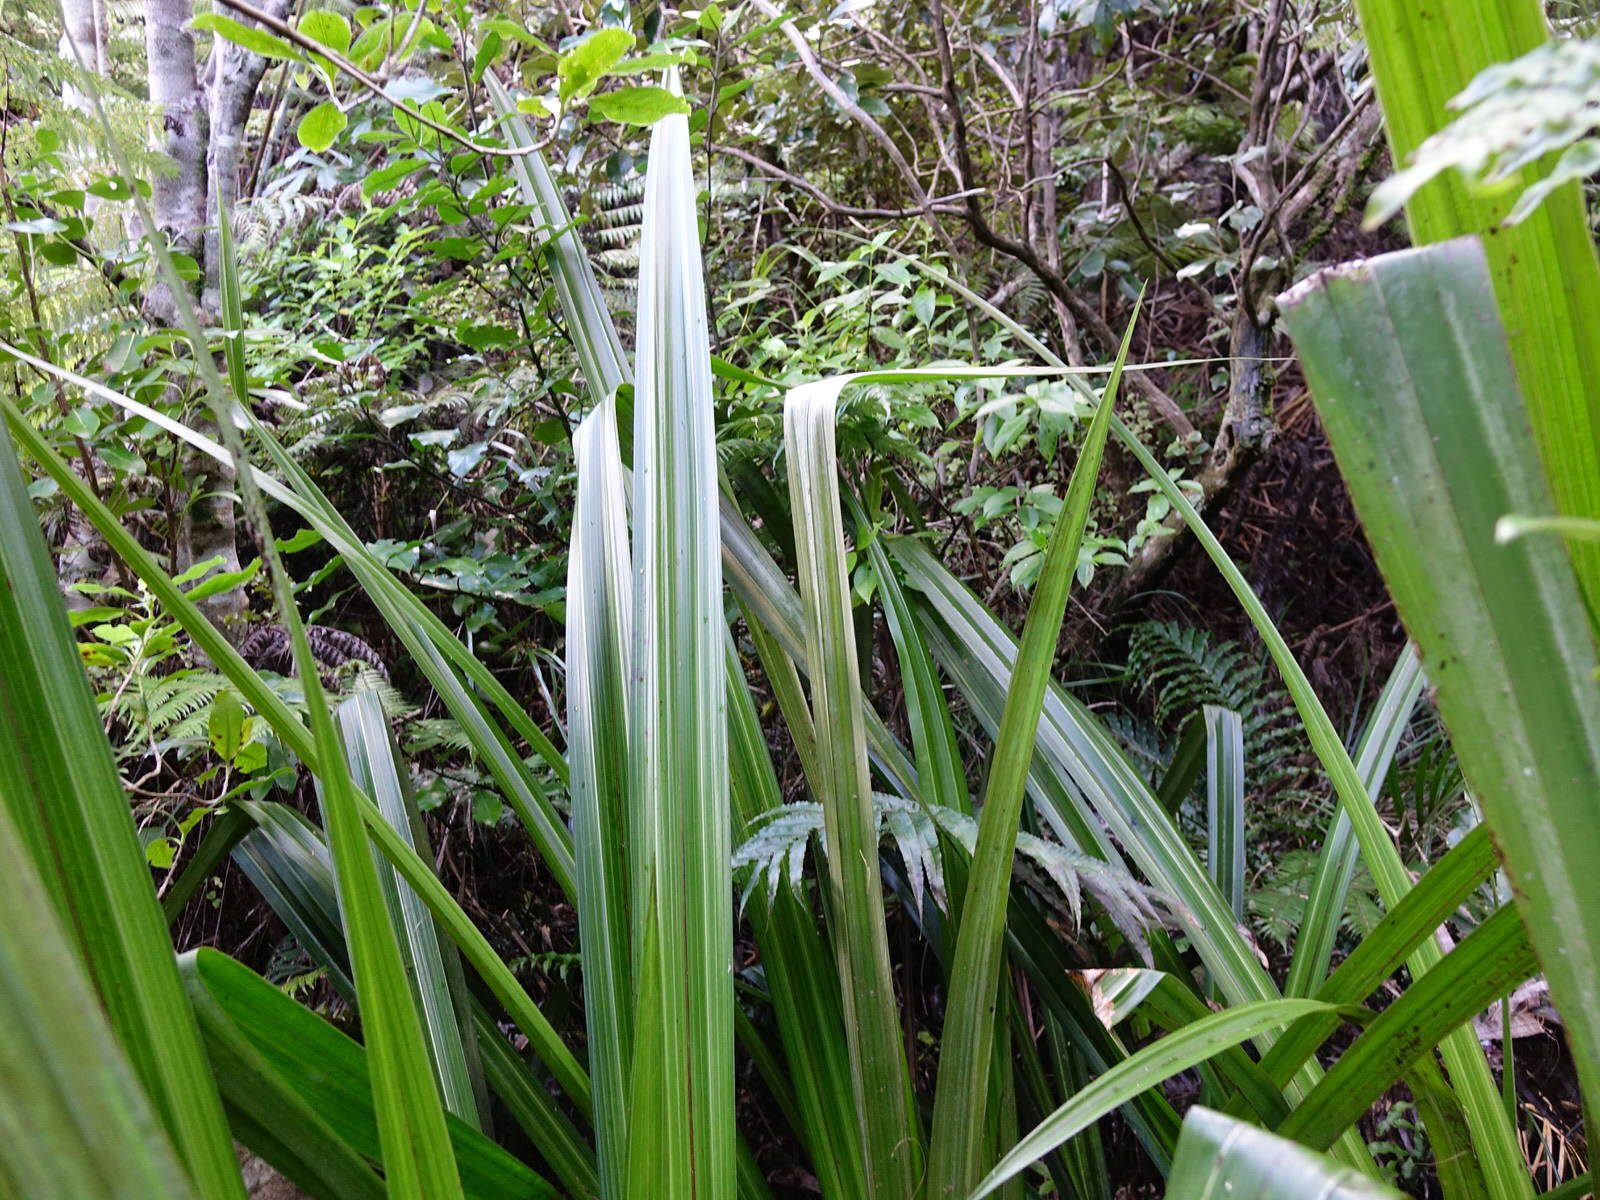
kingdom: Plantae
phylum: Tracheophyta
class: Liliopsida
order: Asparagales
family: Asteliaceae
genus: Astelia
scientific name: Astelia grandis
